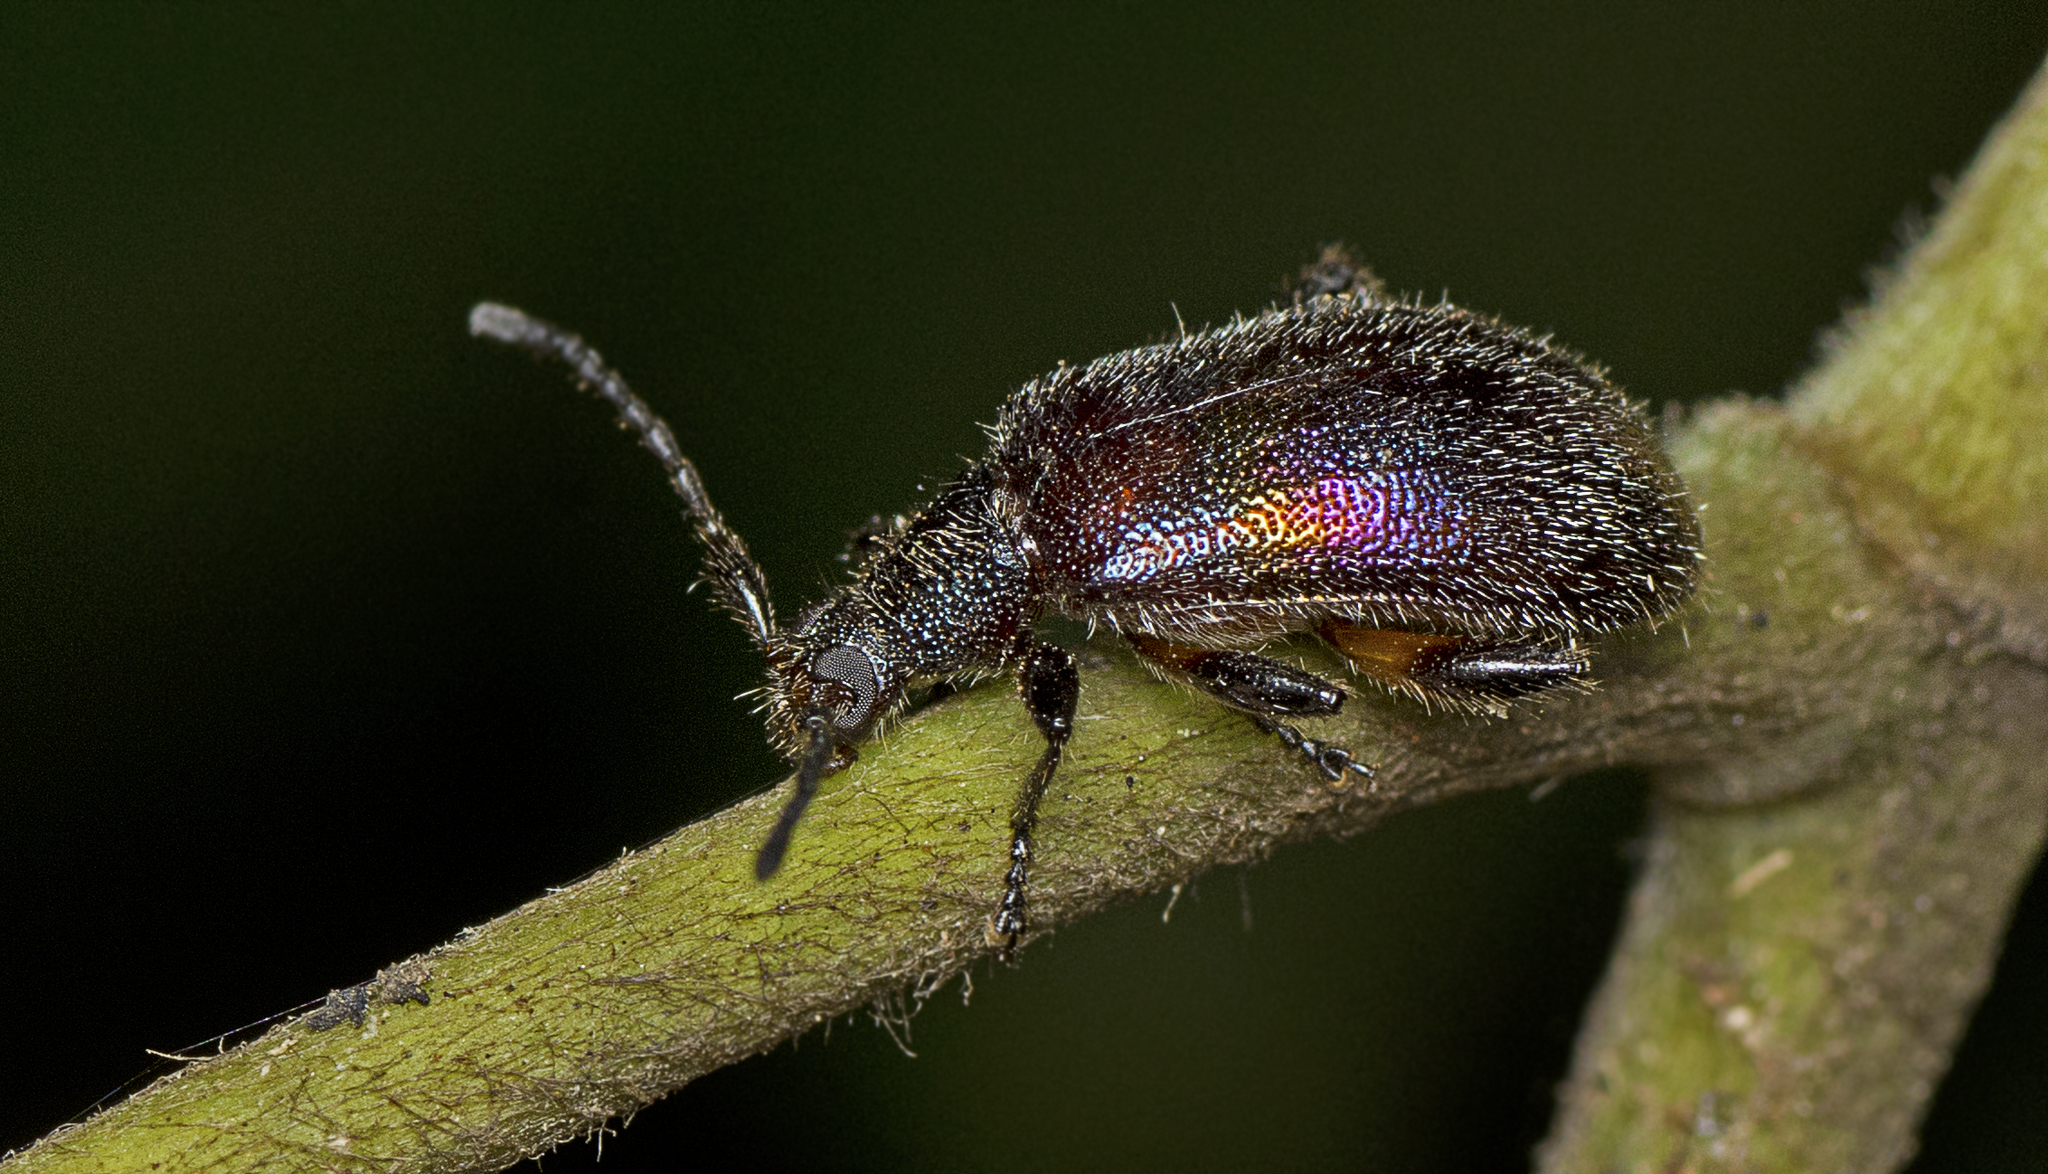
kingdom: Animalia
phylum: Arthropoda
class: Insecta
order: Coleoptera
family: Tenebrionidae
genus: Ecnolagria
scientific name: Ecnolagria
